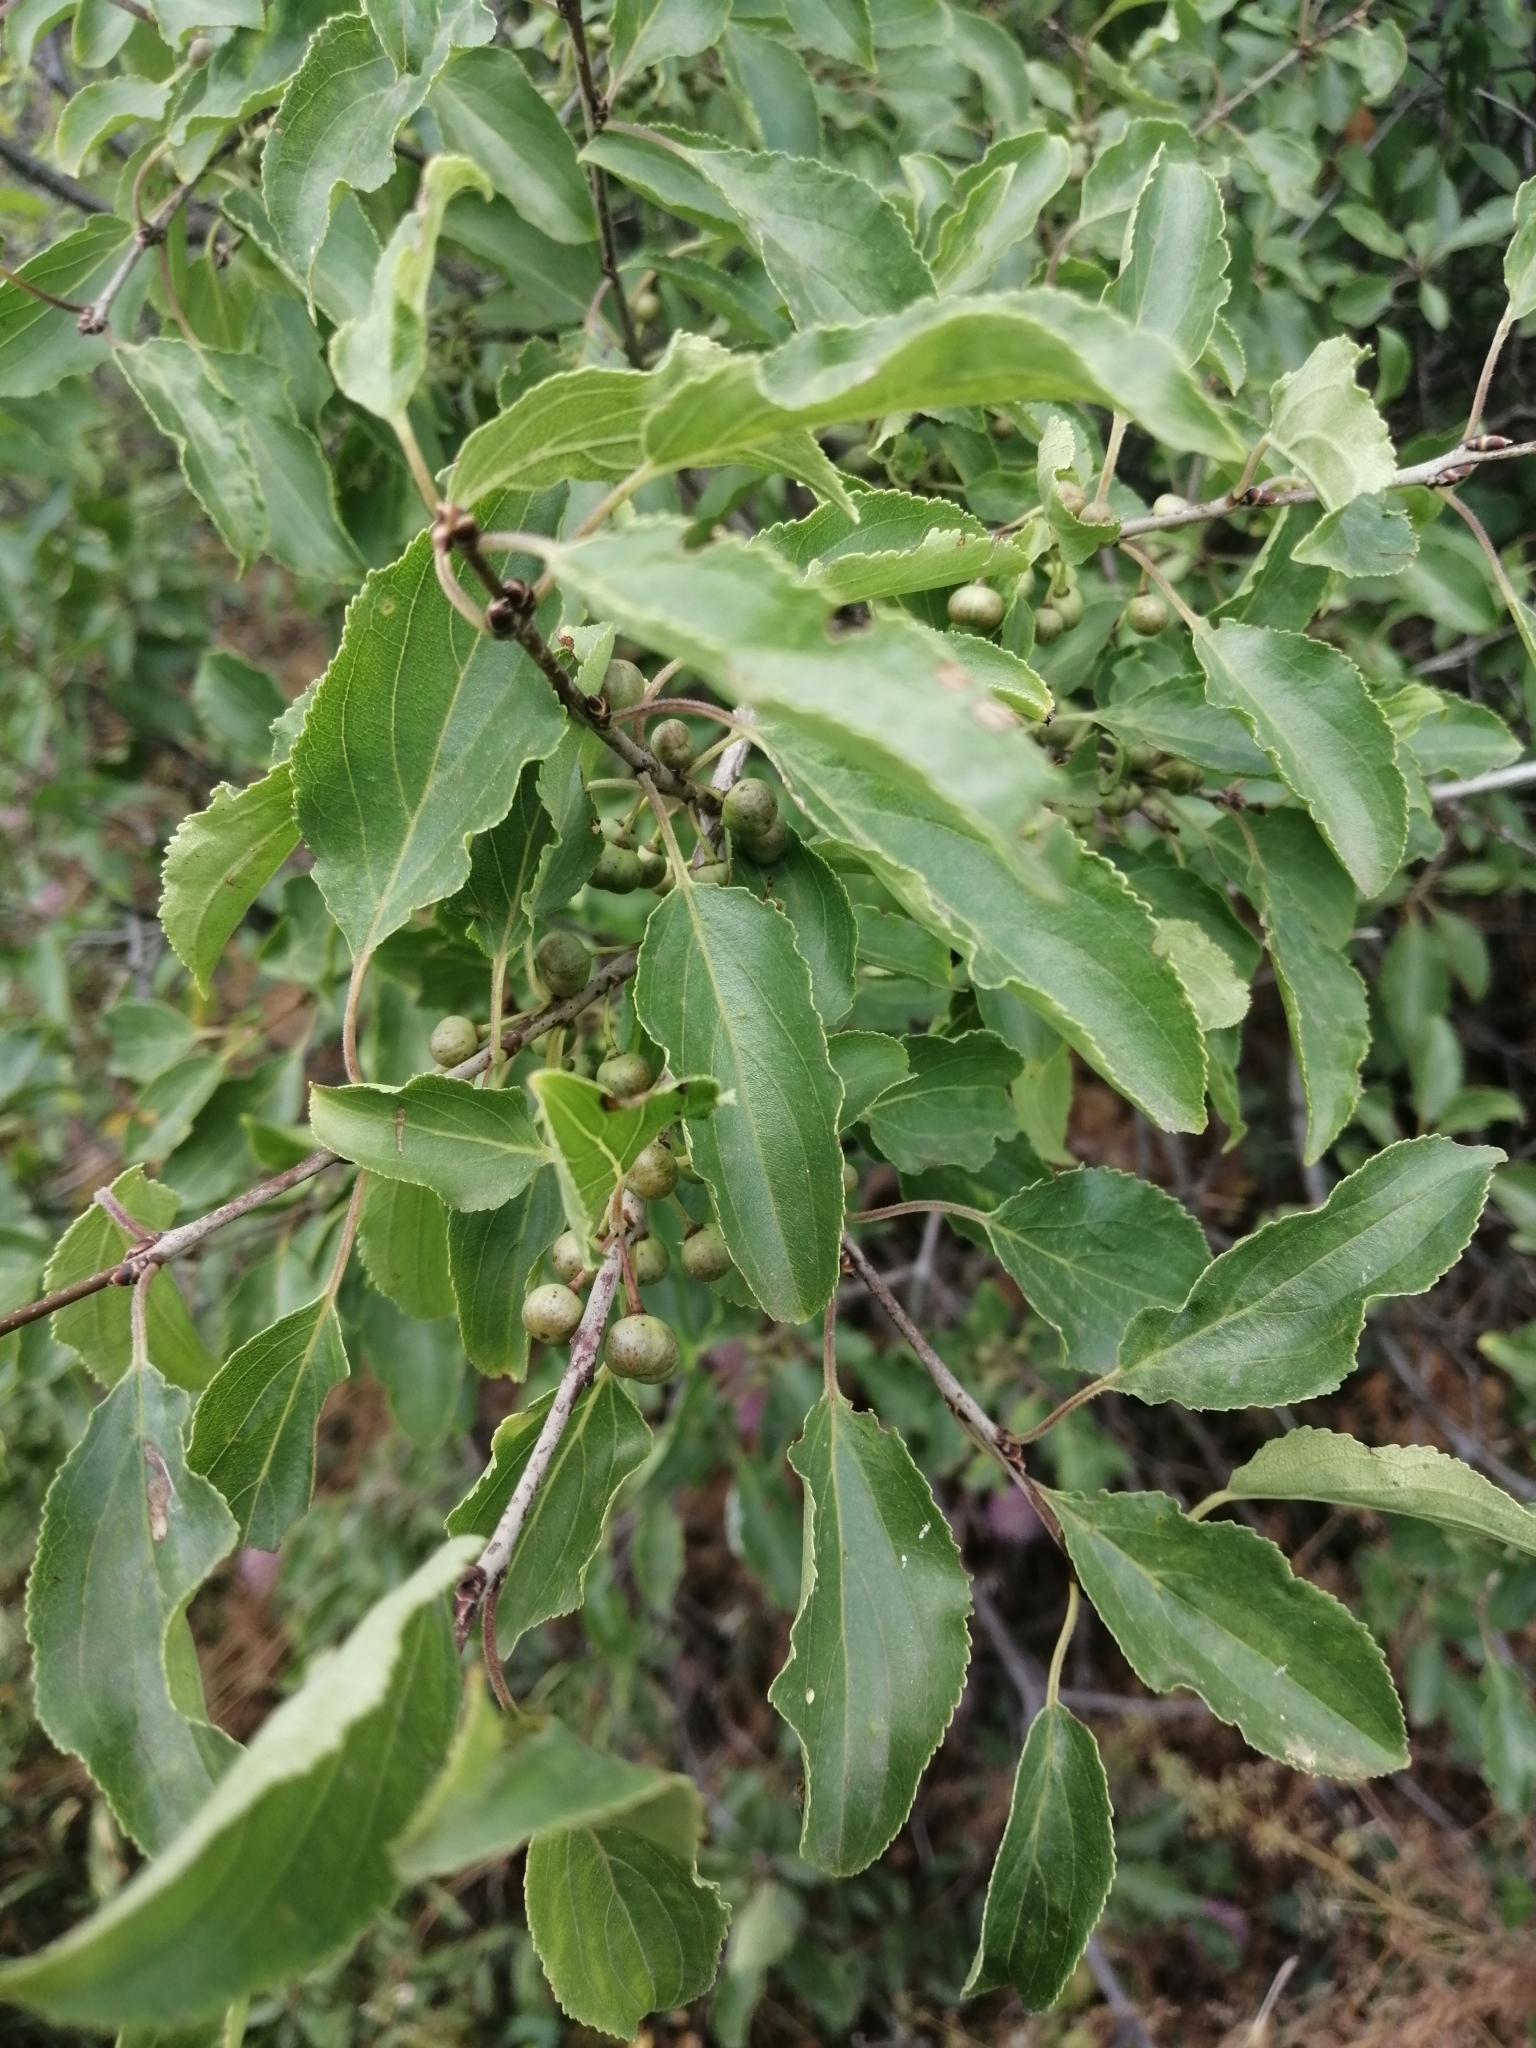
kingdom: Plantae
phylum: Tracheophyta
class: Magnoliopsida
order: Rosales
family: Rhamnaceae
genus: Rhamnus
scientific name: Rhamnus cathartica
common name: Common buckthorn
